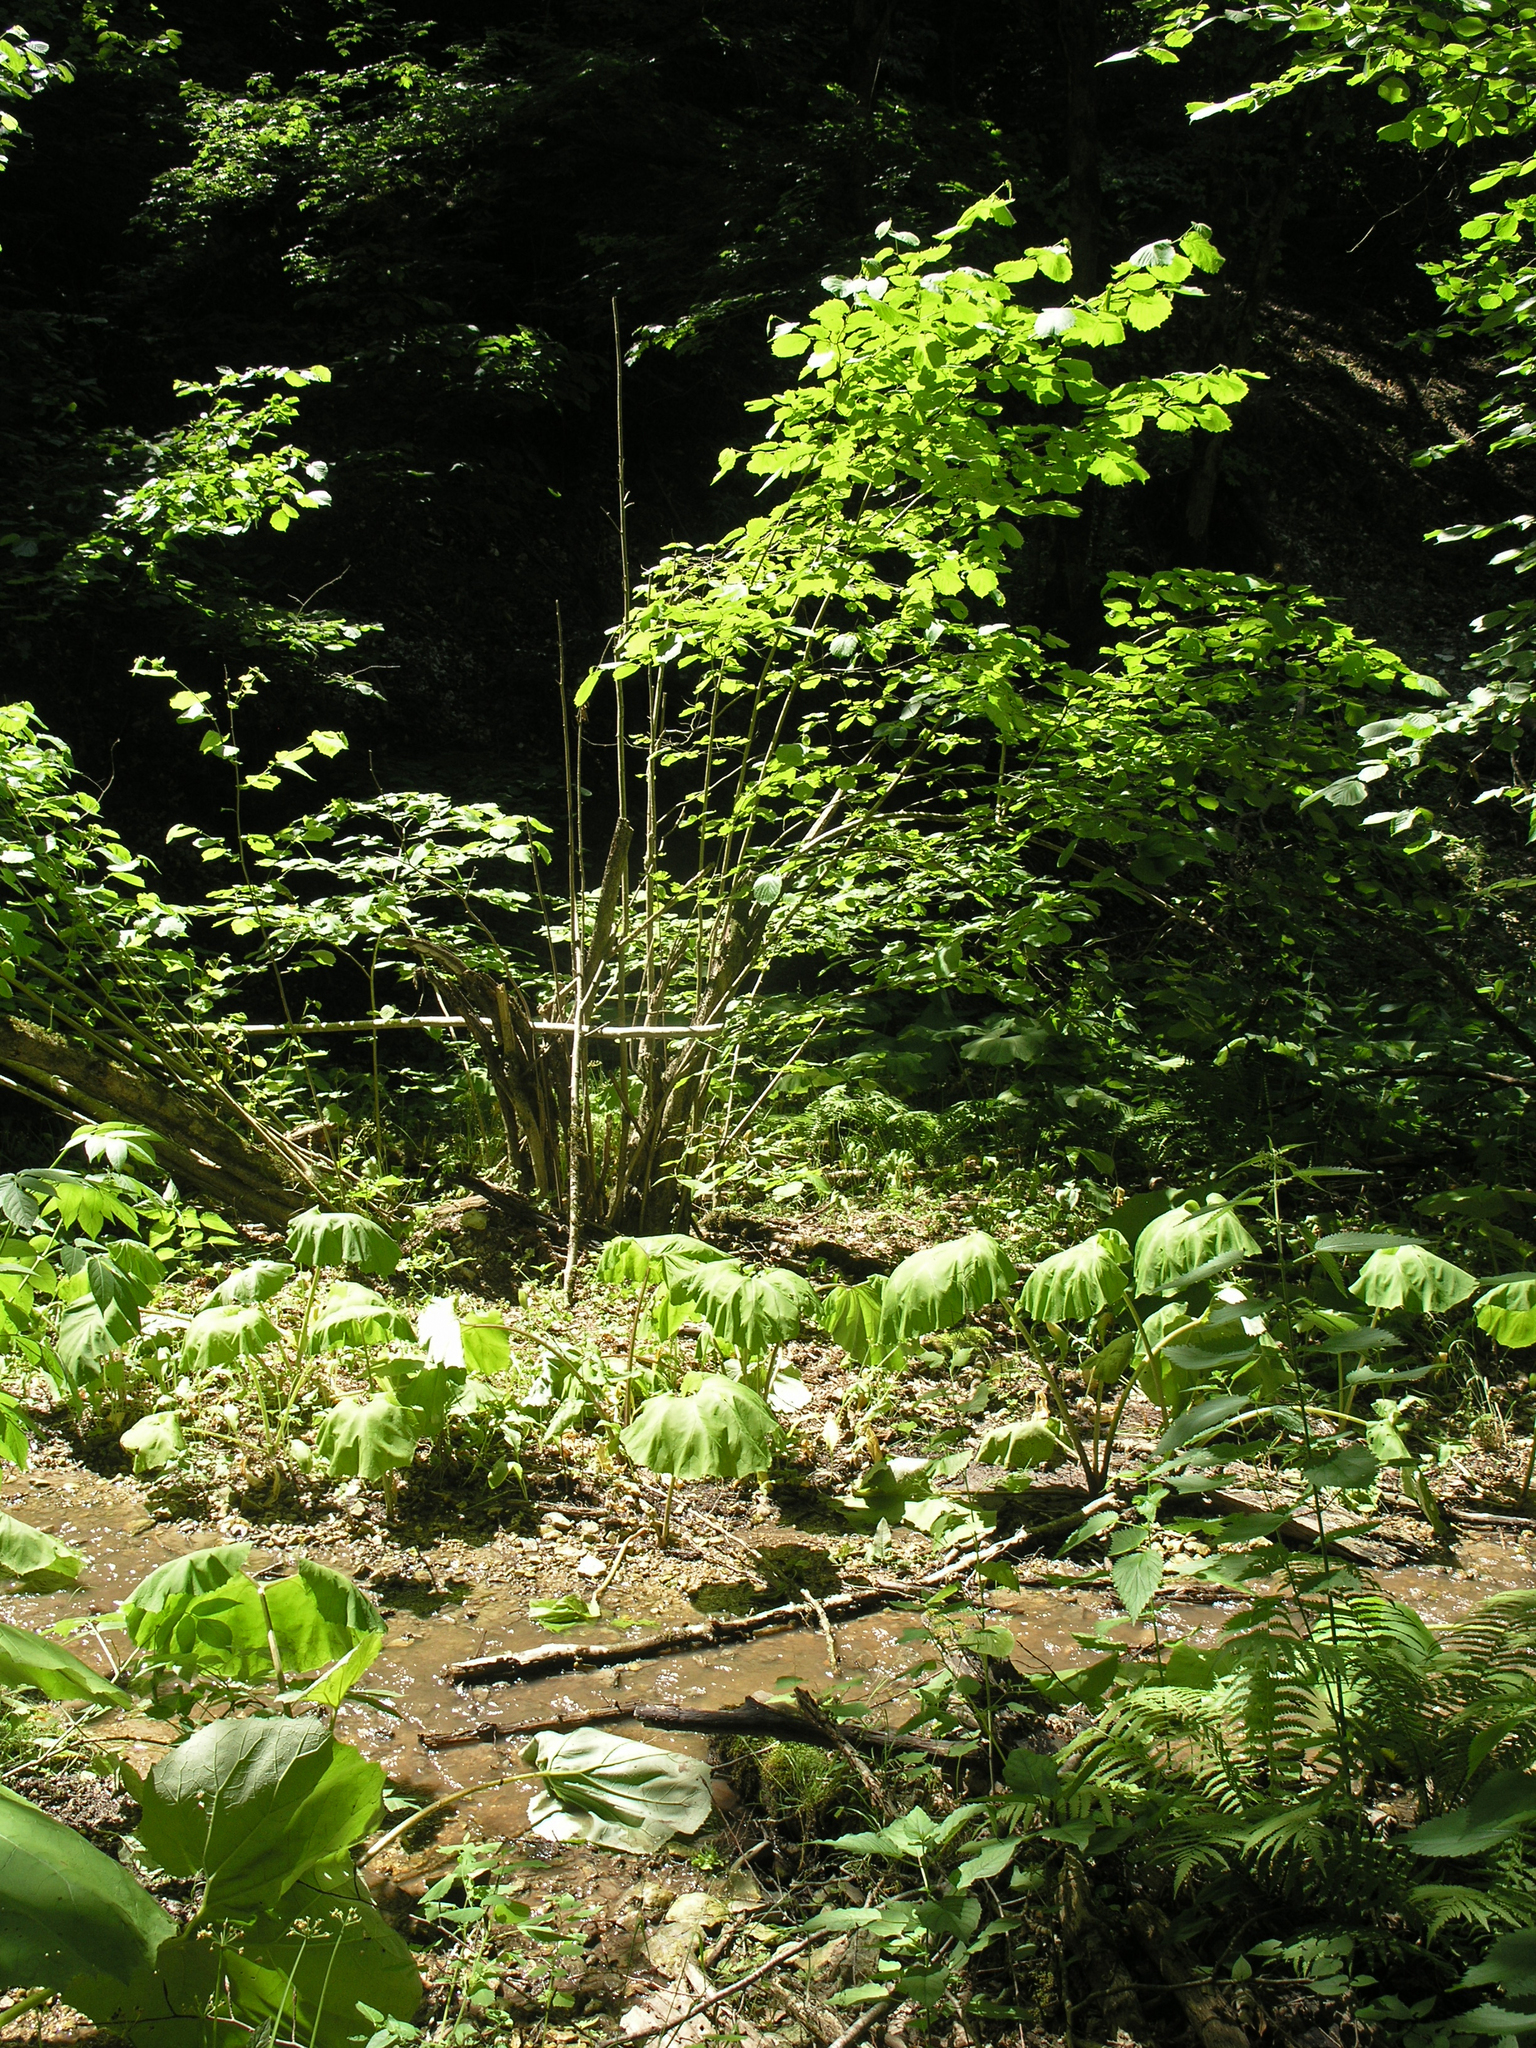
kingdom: Plantae
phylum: Tracheophyta
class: Magnoliopsida
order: Fagales
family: Betulaceae
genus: Corylus
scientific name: Corylus avellana
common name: European hazel
